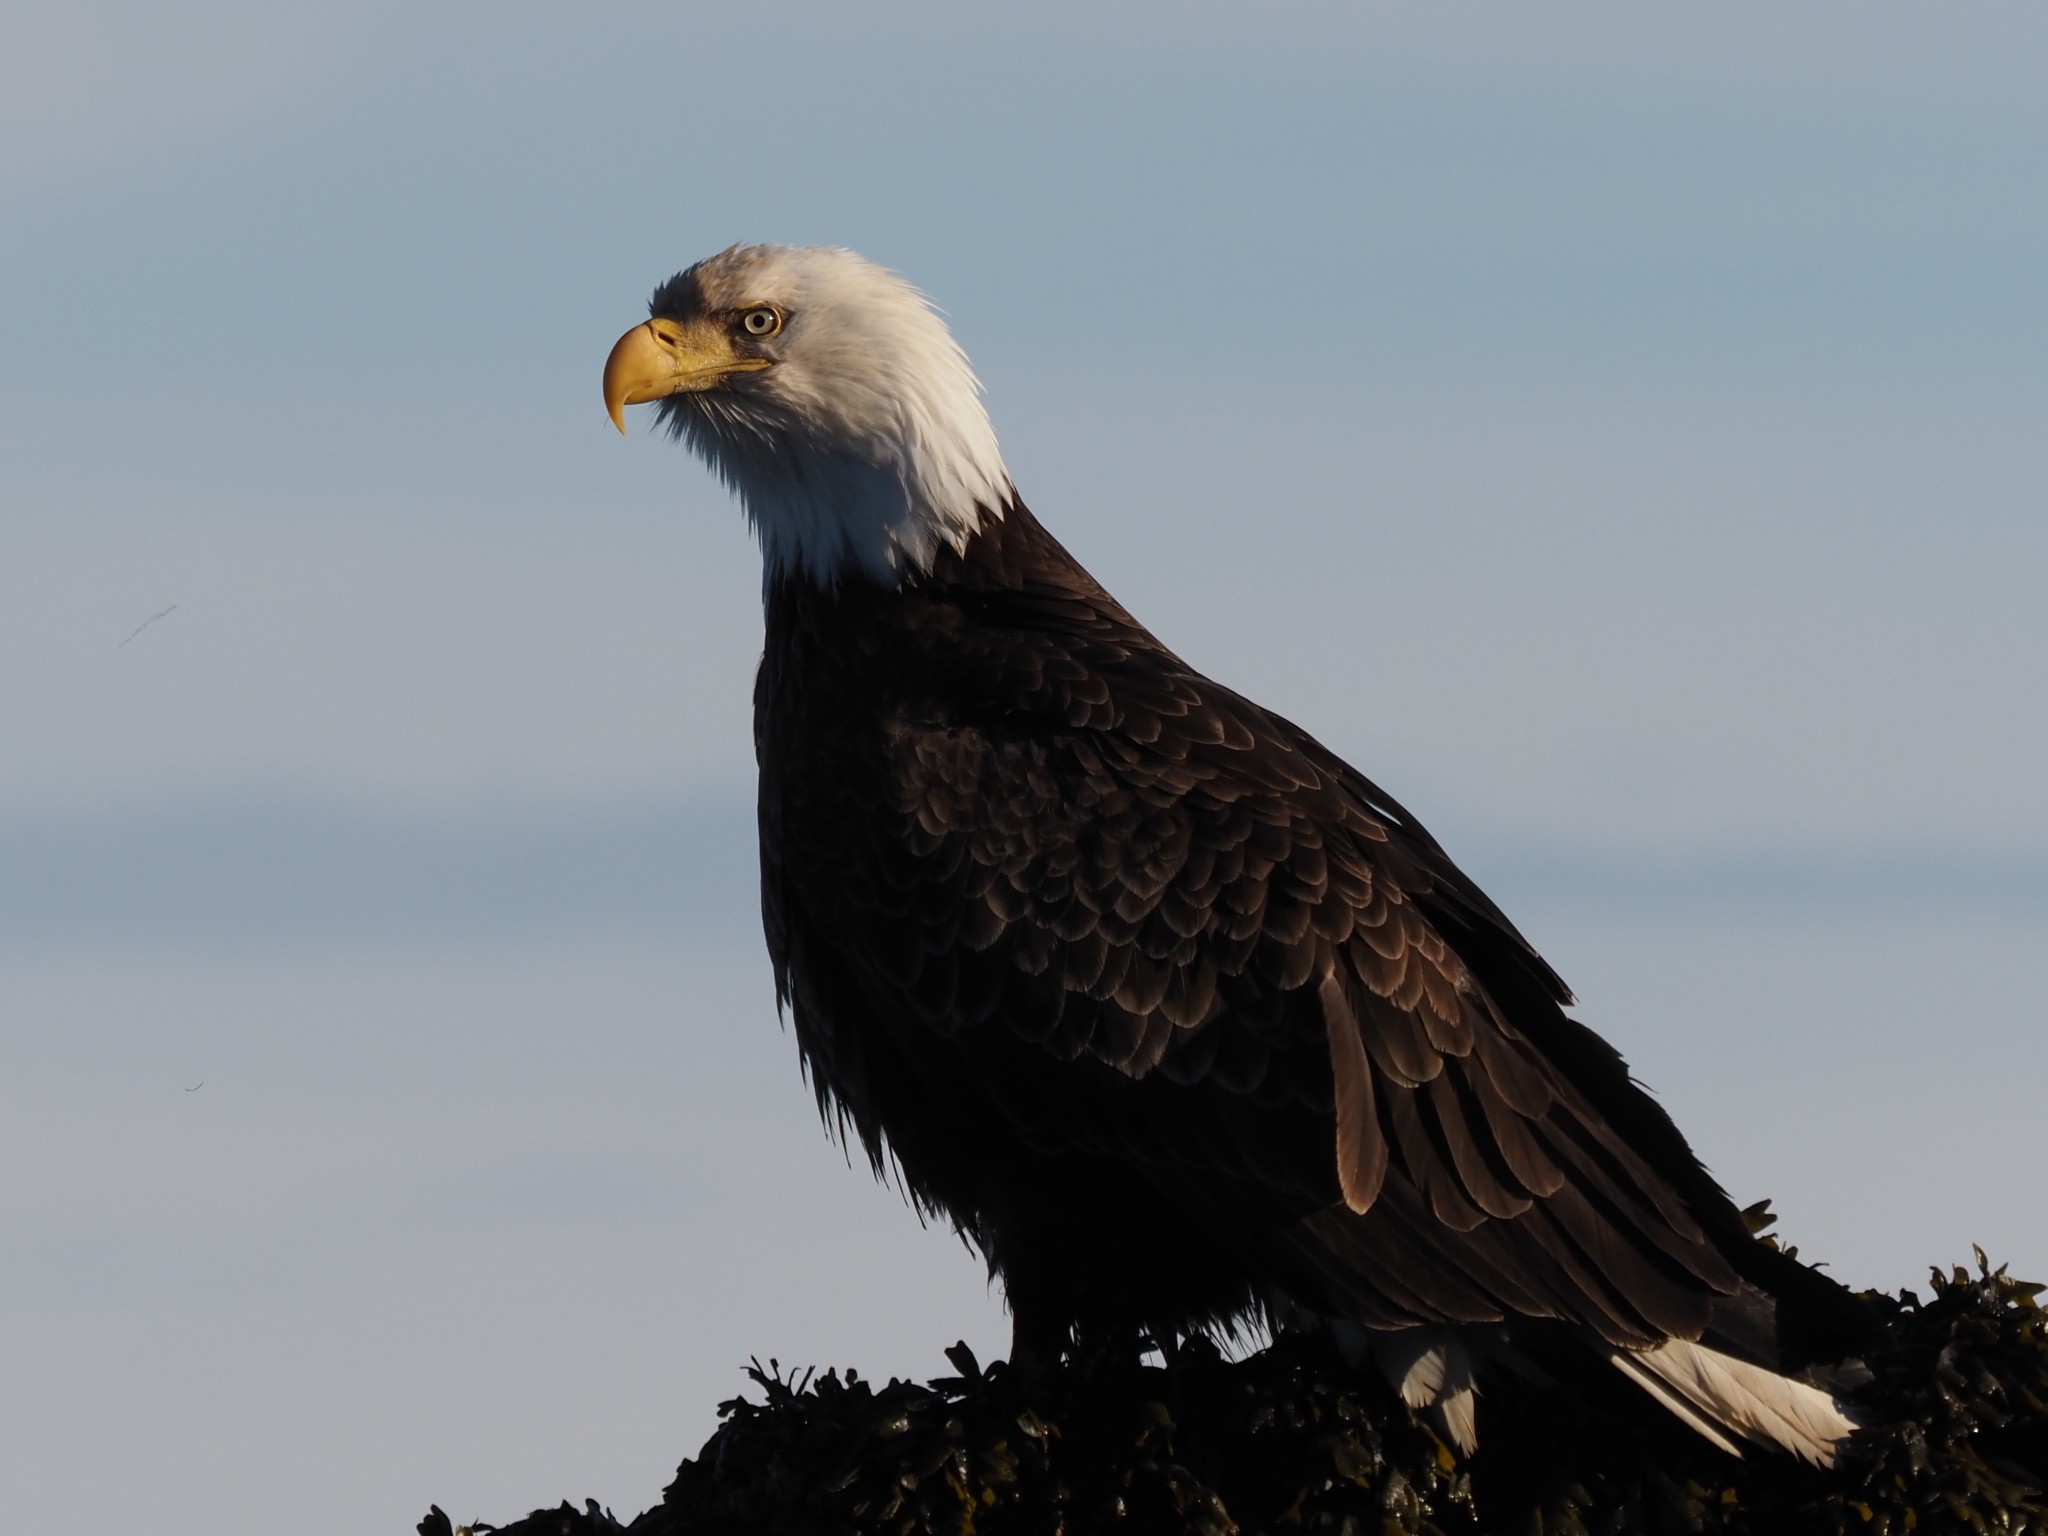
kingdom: Animalia
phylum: Chordata
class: Aves
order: Accipitriformes
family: Accipitridae
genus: Haliaeetus
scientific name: Haliaeetus leucocephalus
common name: Bald eagle
